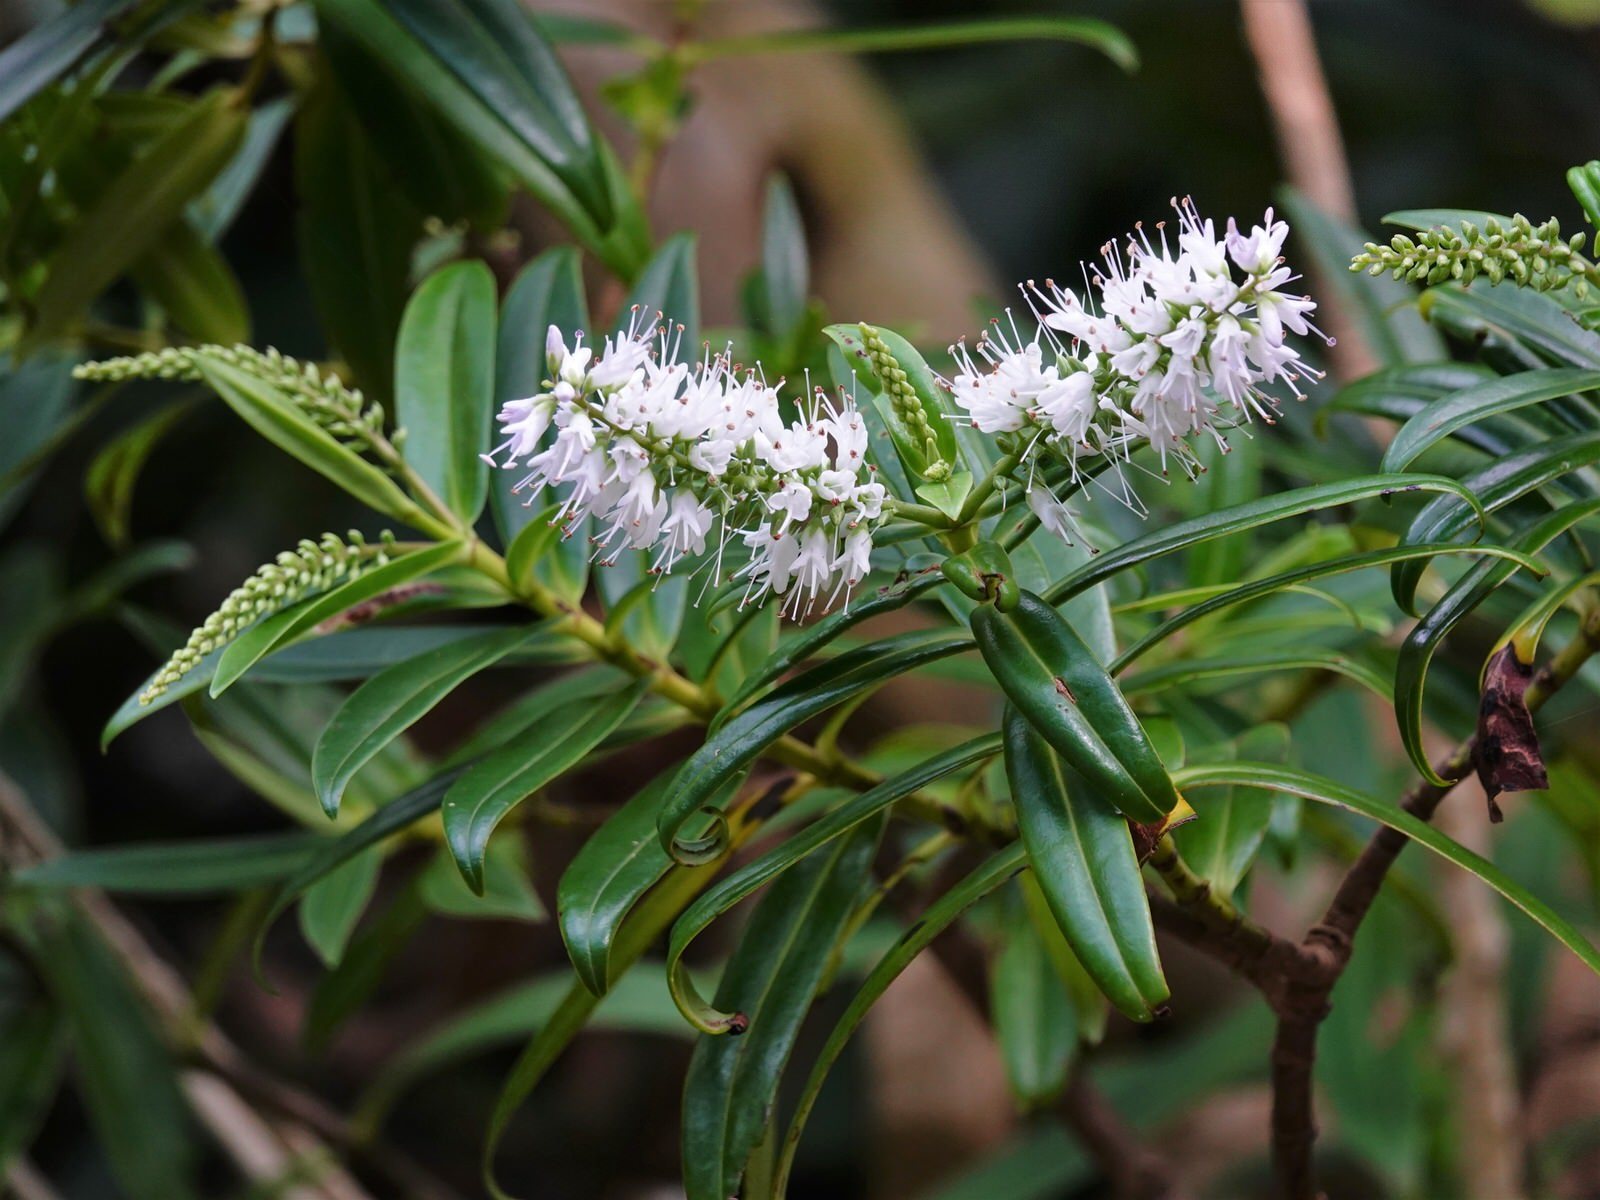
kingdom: Plantae
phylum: Tracheophyta
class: Magnoliopsida
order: Lamiales
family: Plantaginaceae
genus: Veronica
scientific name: Veronica macrocarpa
